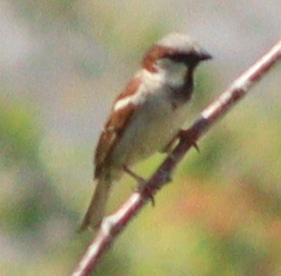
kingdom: Animalia
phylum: Chordata
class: Aves
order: Passeriformes
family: Passeridae
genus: Passer
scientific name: Passer domesticus
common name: House sparrow
